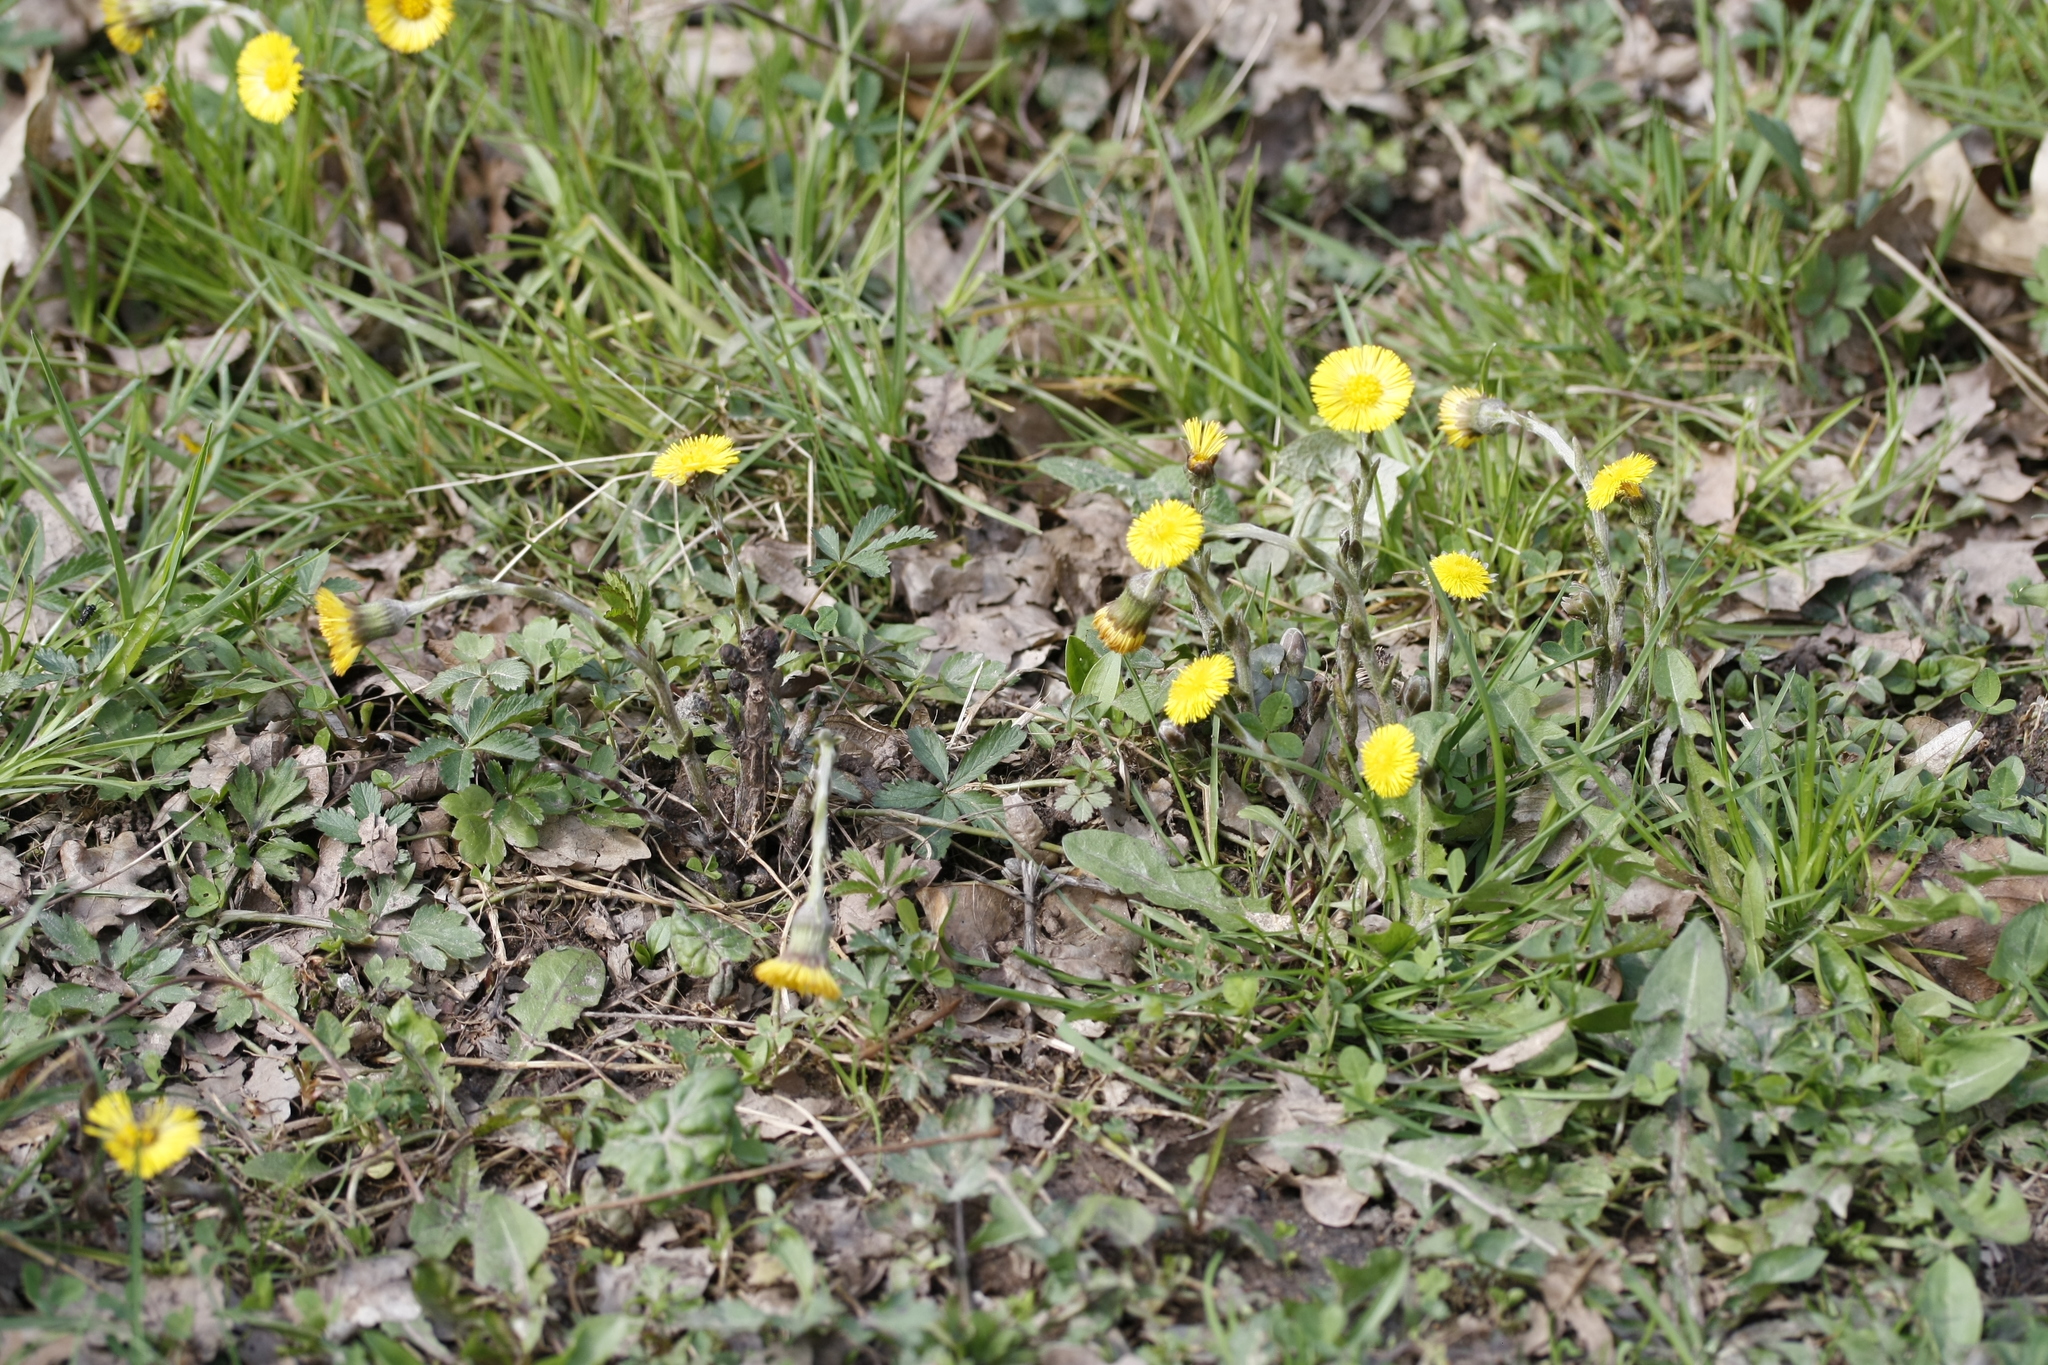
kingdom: Plantae
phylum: Tracheophyta
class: Magnoliopsida
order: Asterales
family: Asteraceae
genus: Tussilago
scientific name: Tussilago farfara
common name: Coltsfoot
